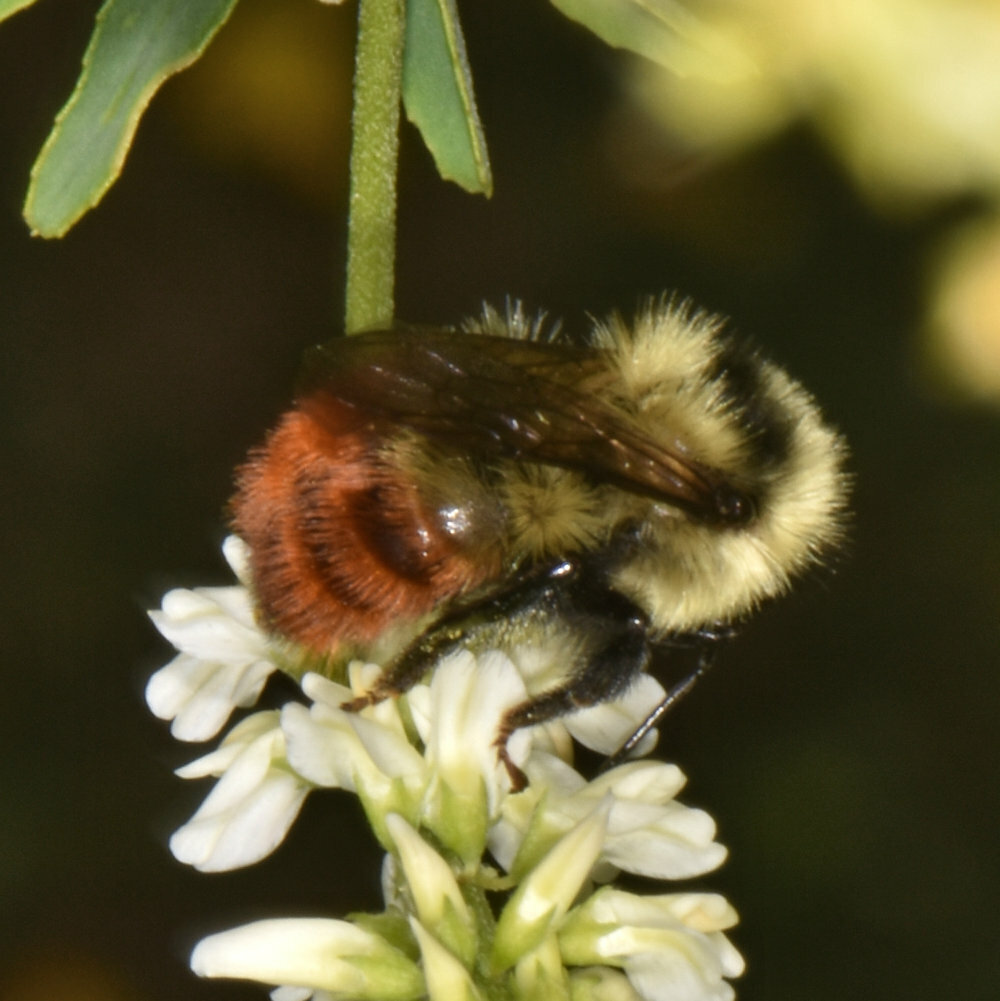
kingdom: Animalia
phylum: Arthropoda
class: Insecta
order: Hymenoptera
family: Apidae
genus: Bombus
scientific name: Bombus rufocinctus
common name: Red-belted bumble bee
